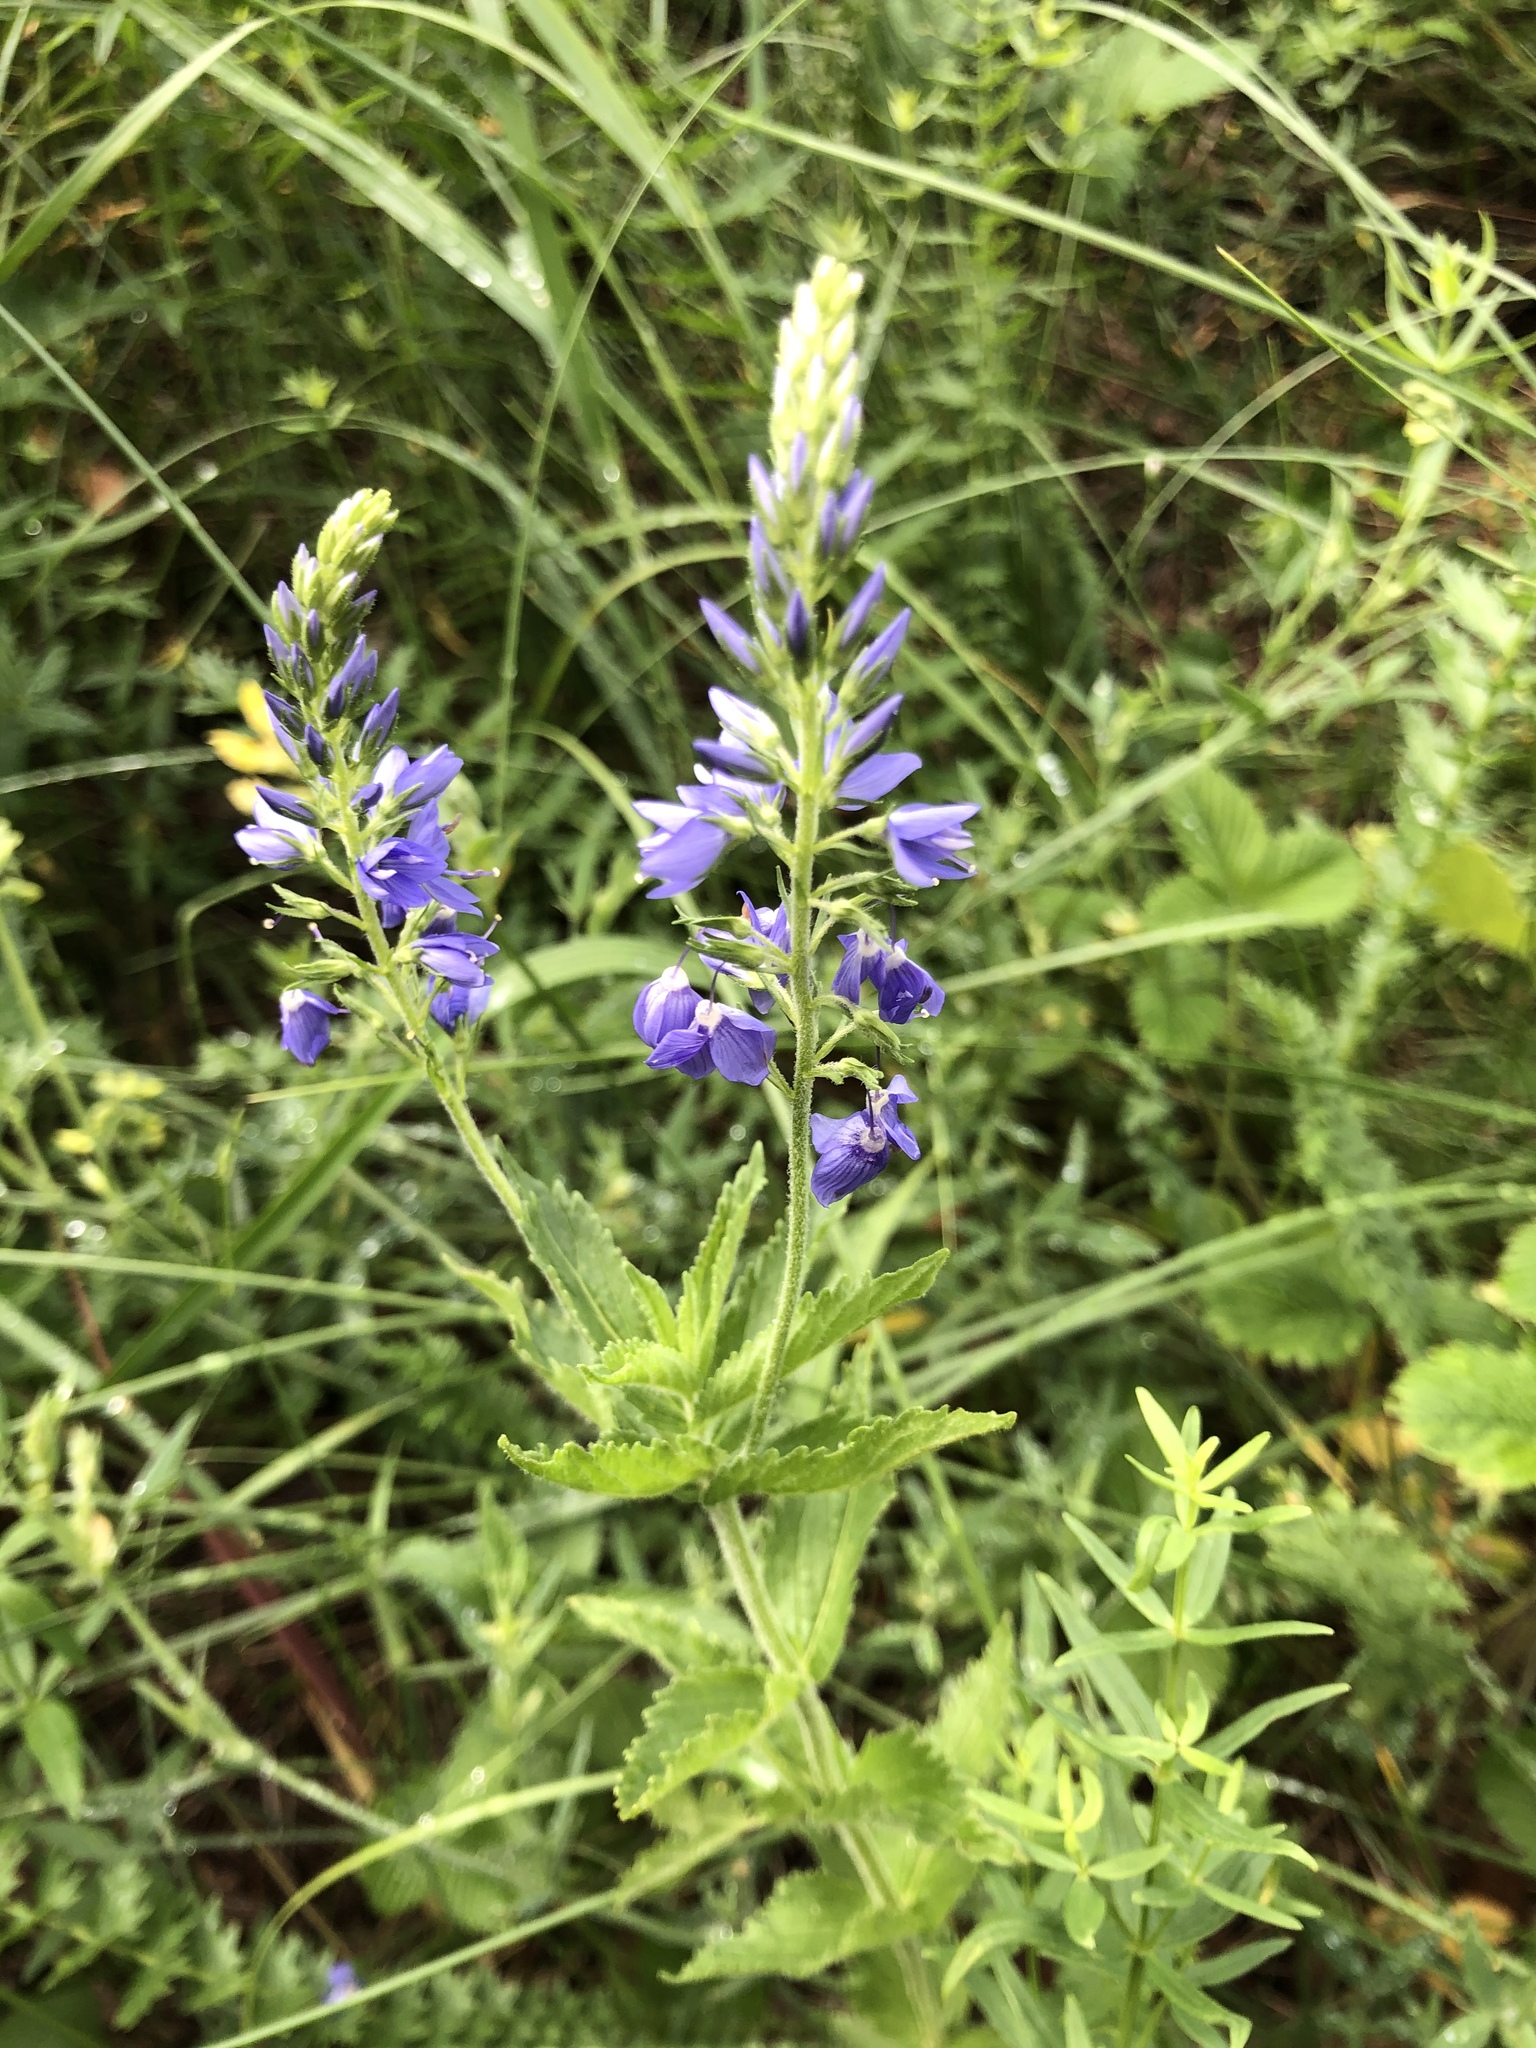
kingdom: Plantae
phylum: Tracheophyta
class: Magnoliopsida
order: Lamiales
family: Plantaginaceae
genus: Veronica
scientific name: Veronica teucrium
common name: Large speedwell
